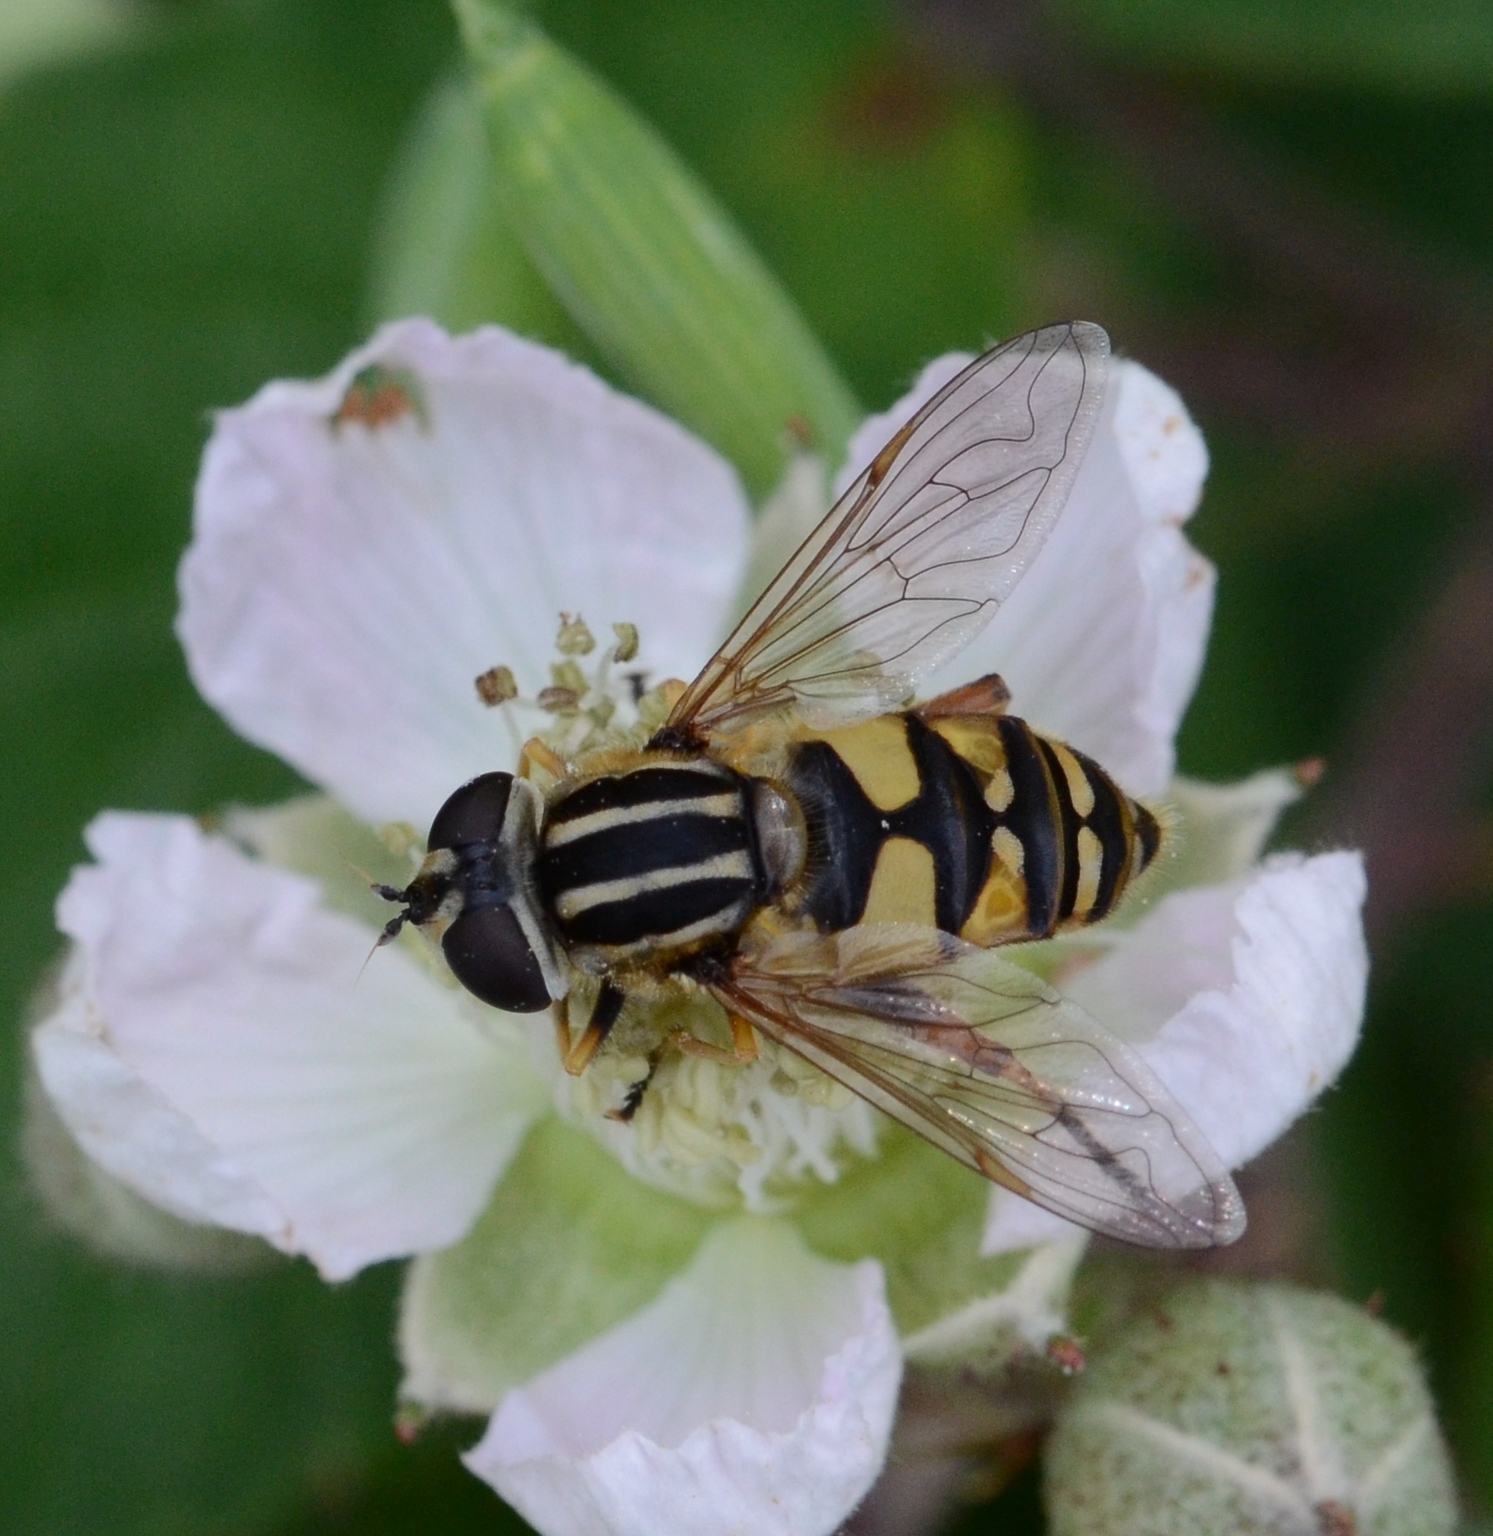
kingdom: Animalia
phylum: Arthropoda
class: Insecta
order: Diptera
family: Syrphidae
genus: Helophilus
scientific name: Helophilus pendulus
